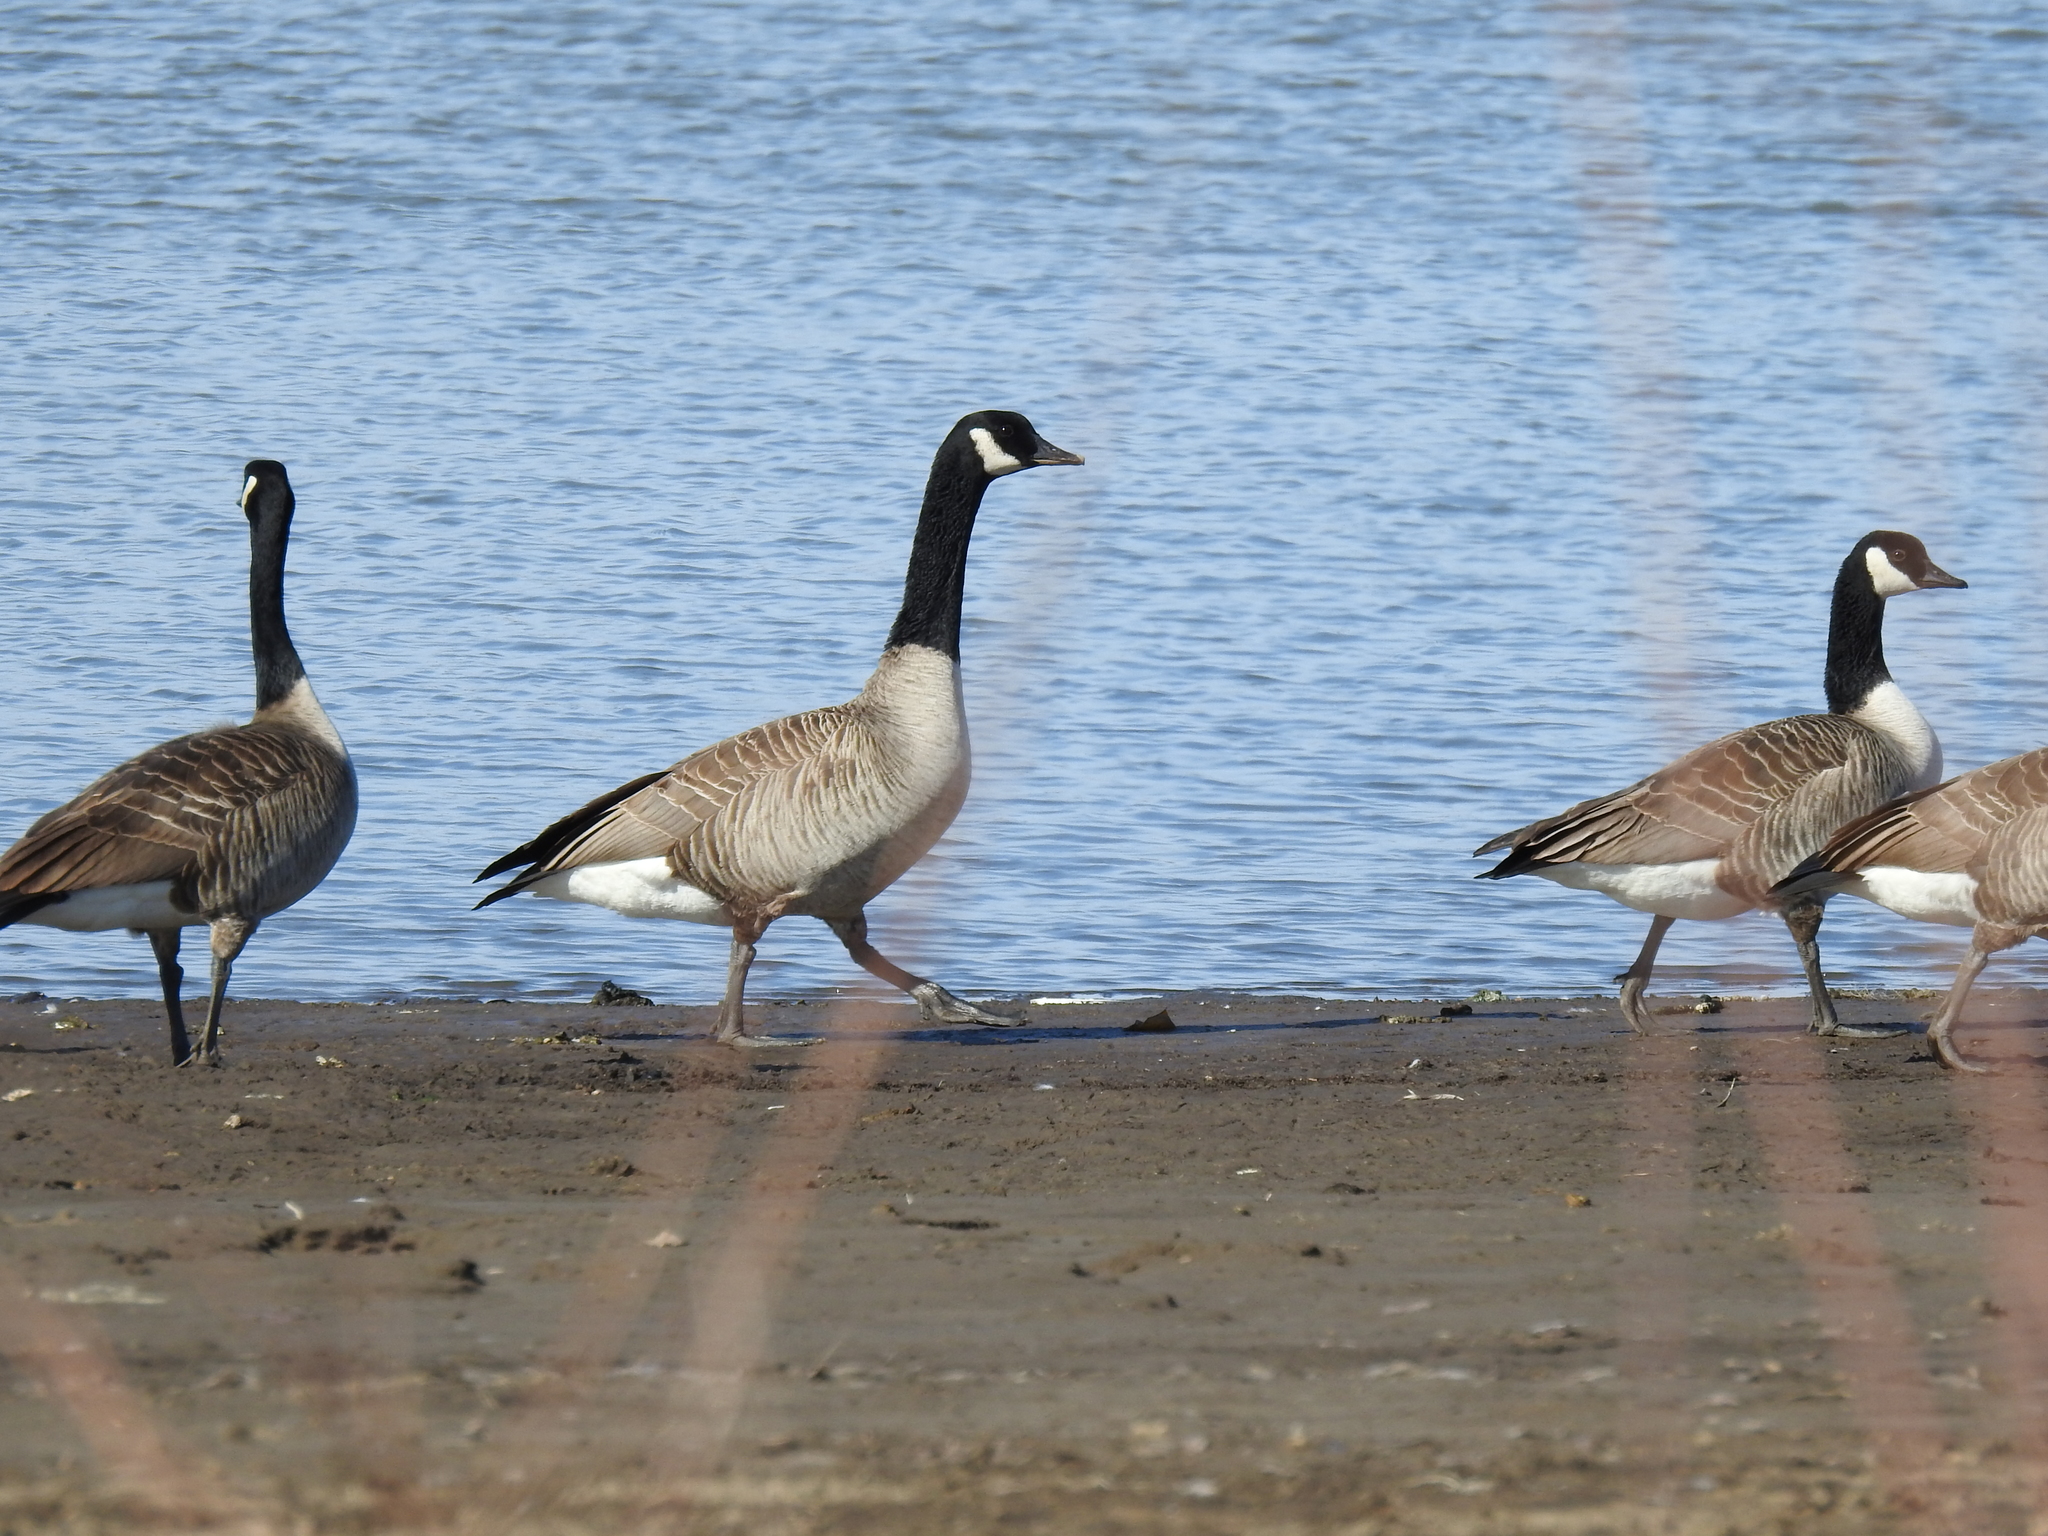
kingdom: Animalia
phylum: Chordata
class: Aves
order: Anseriformes
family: Anatidae
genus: Branta
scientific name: Branta canadensis
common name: Canada goose
